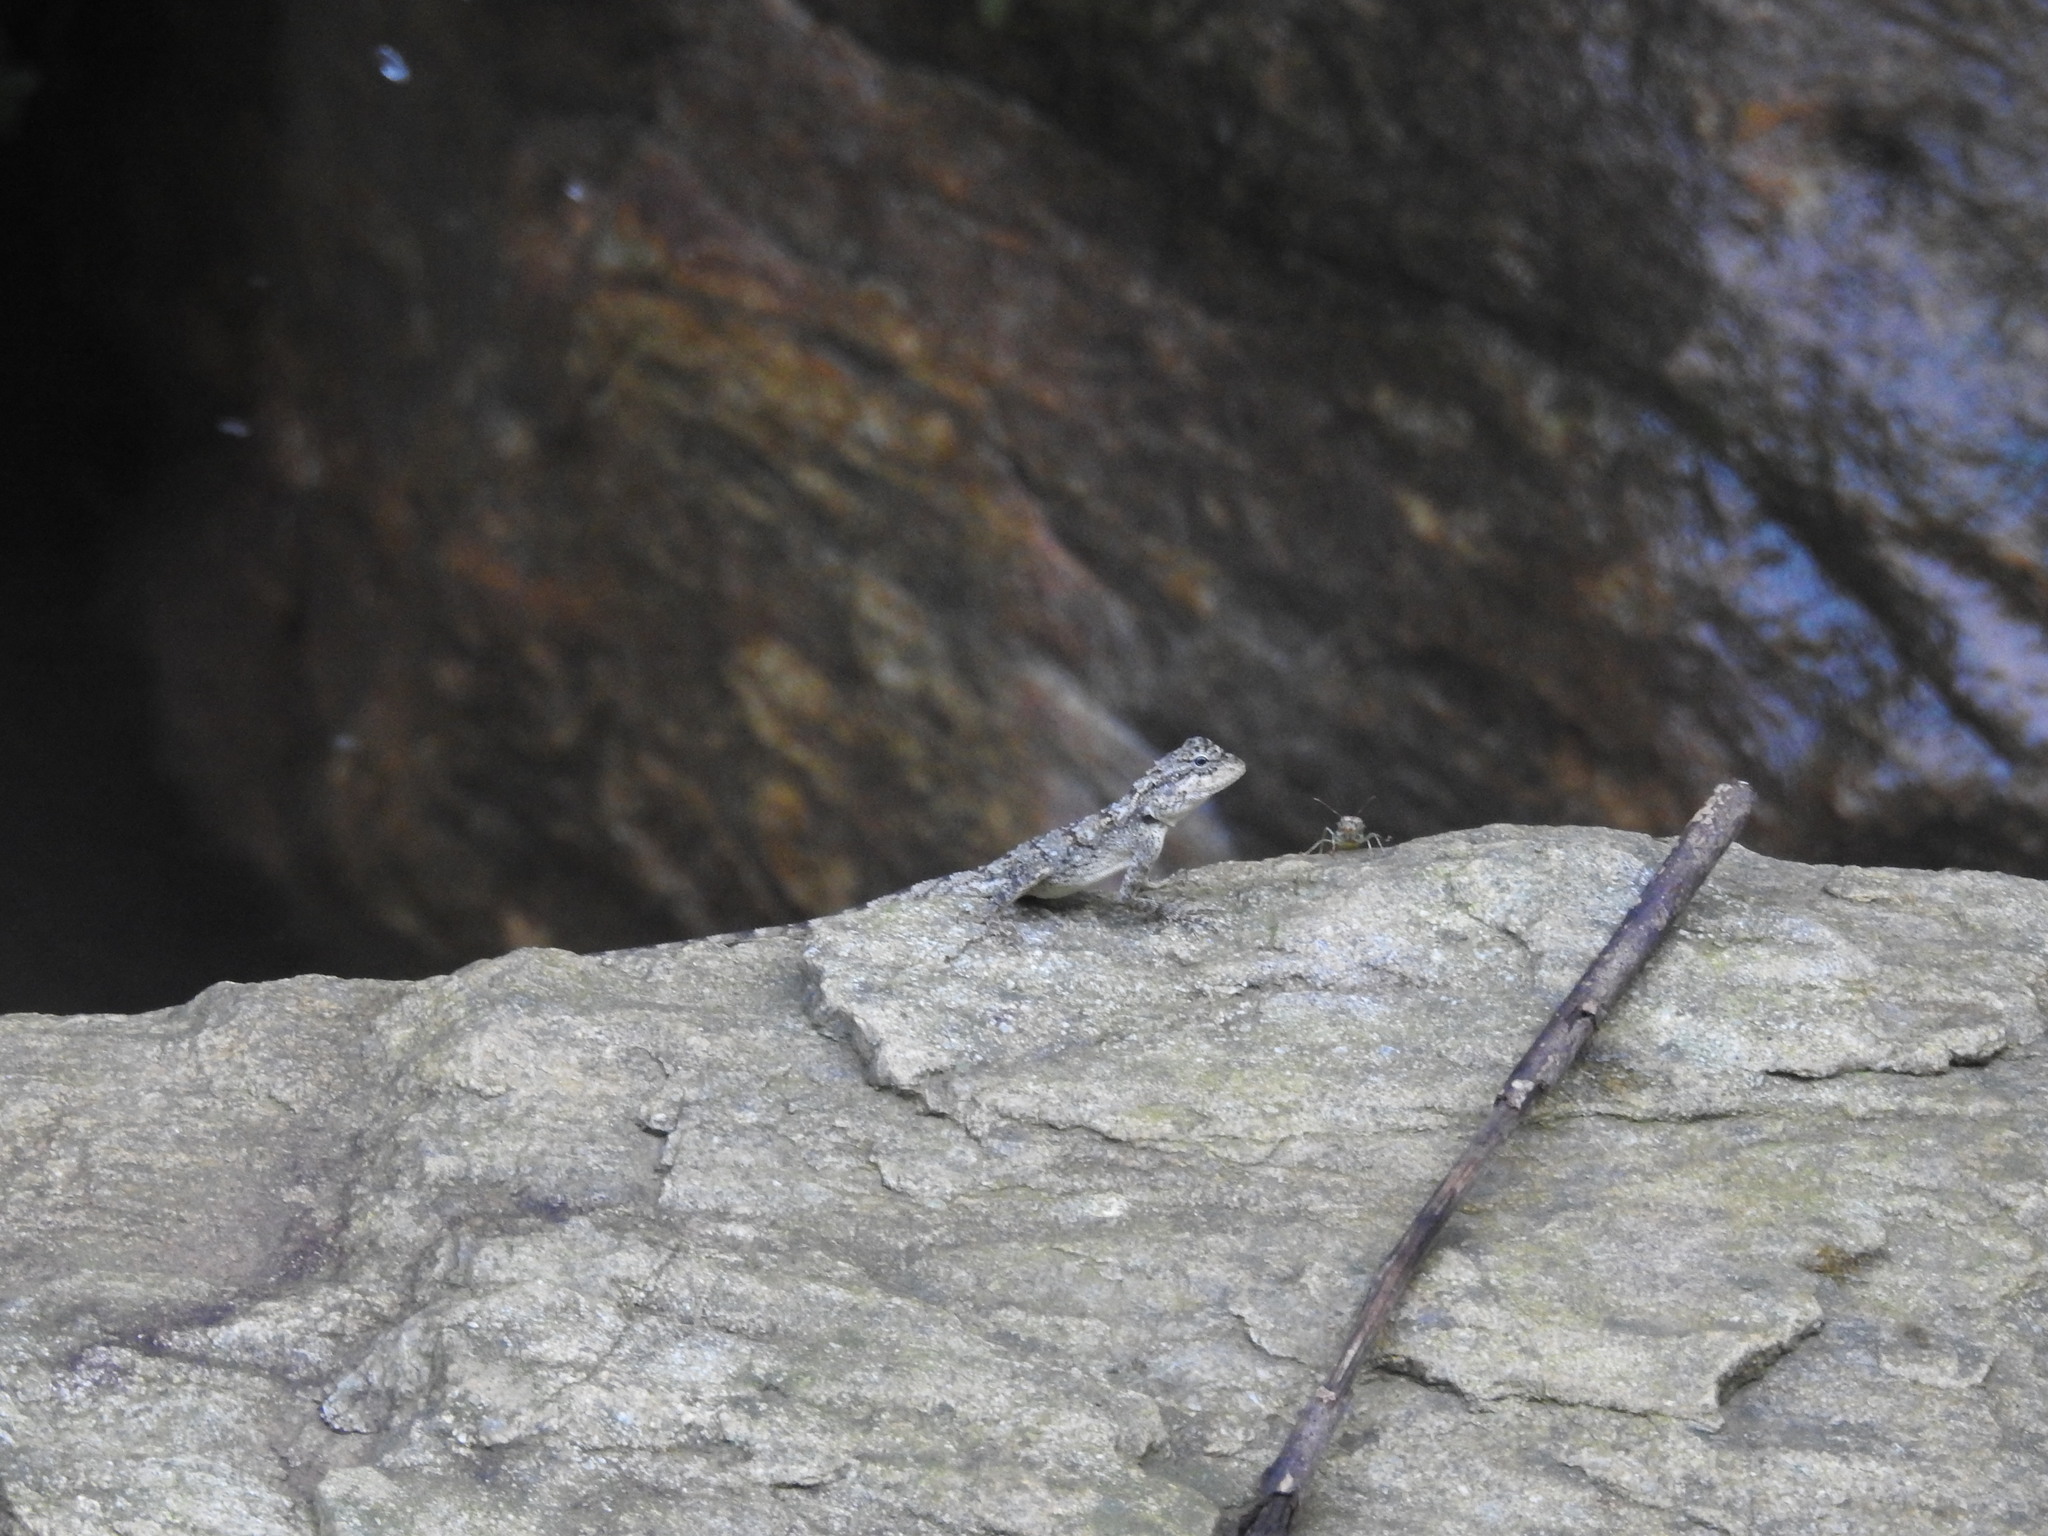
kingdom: Animalia
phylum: Chordata
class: Squamata
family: Agamidae
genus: Psammophilus
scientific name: Psammophilus dorsalis
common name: South indian rock agama
